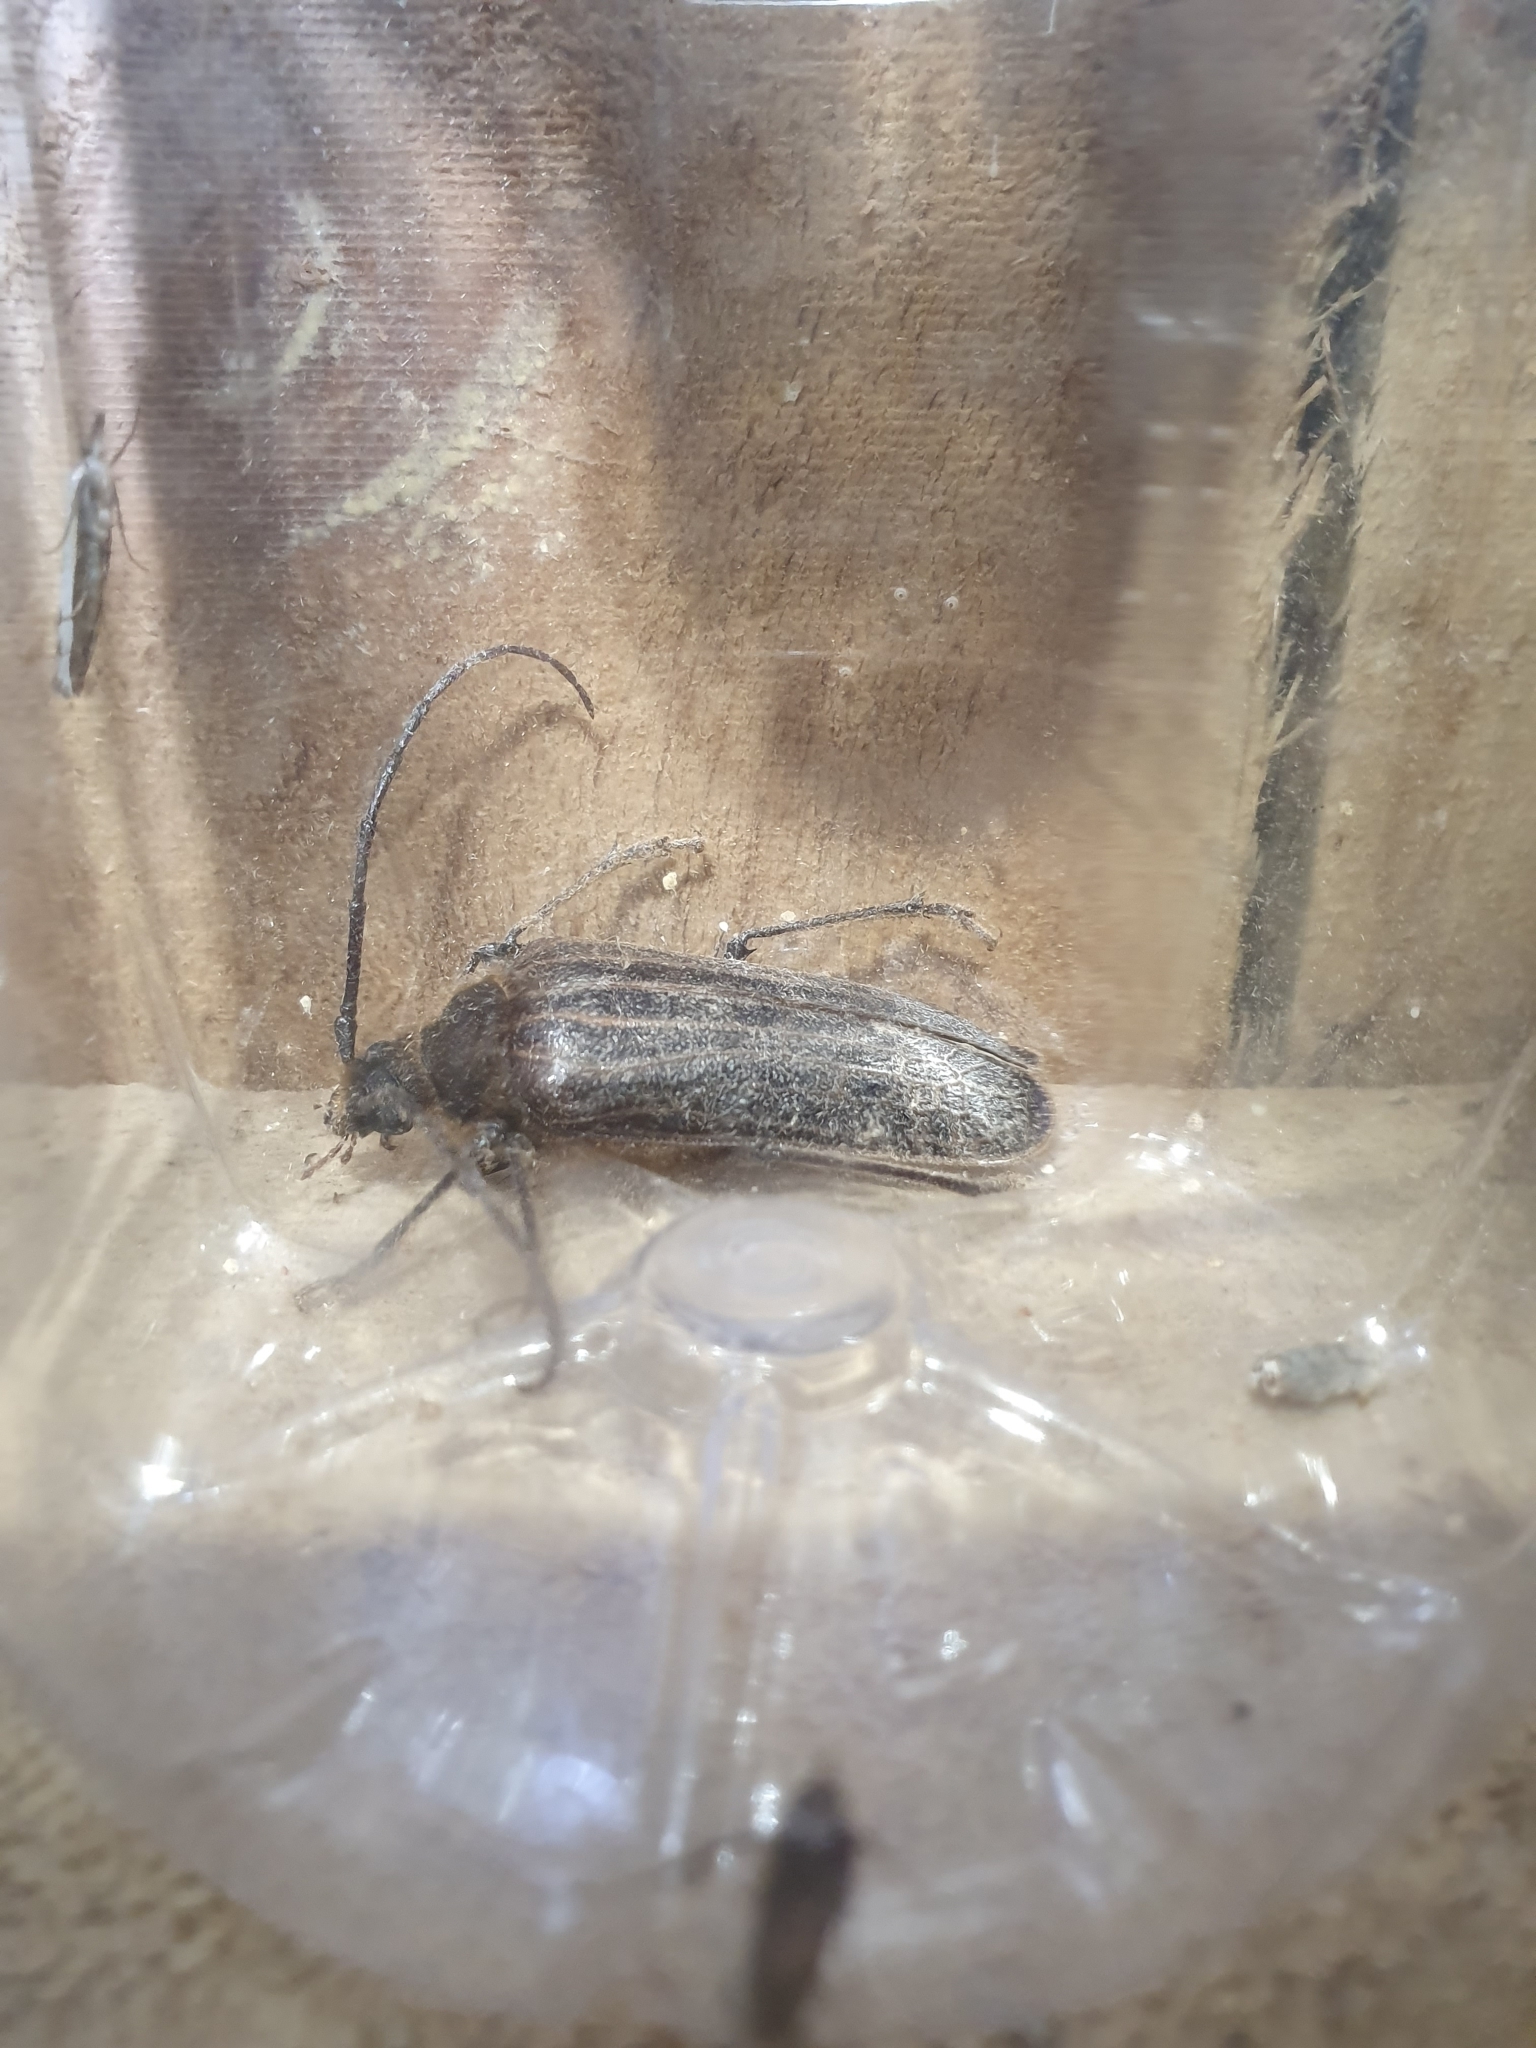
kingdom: Animalia
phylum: Arthropoda
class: Insecta
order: Coleoptera
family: Cerambycidae
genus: Prionoplus
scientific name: Prionoplus reticularis
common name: Huhu beetle
